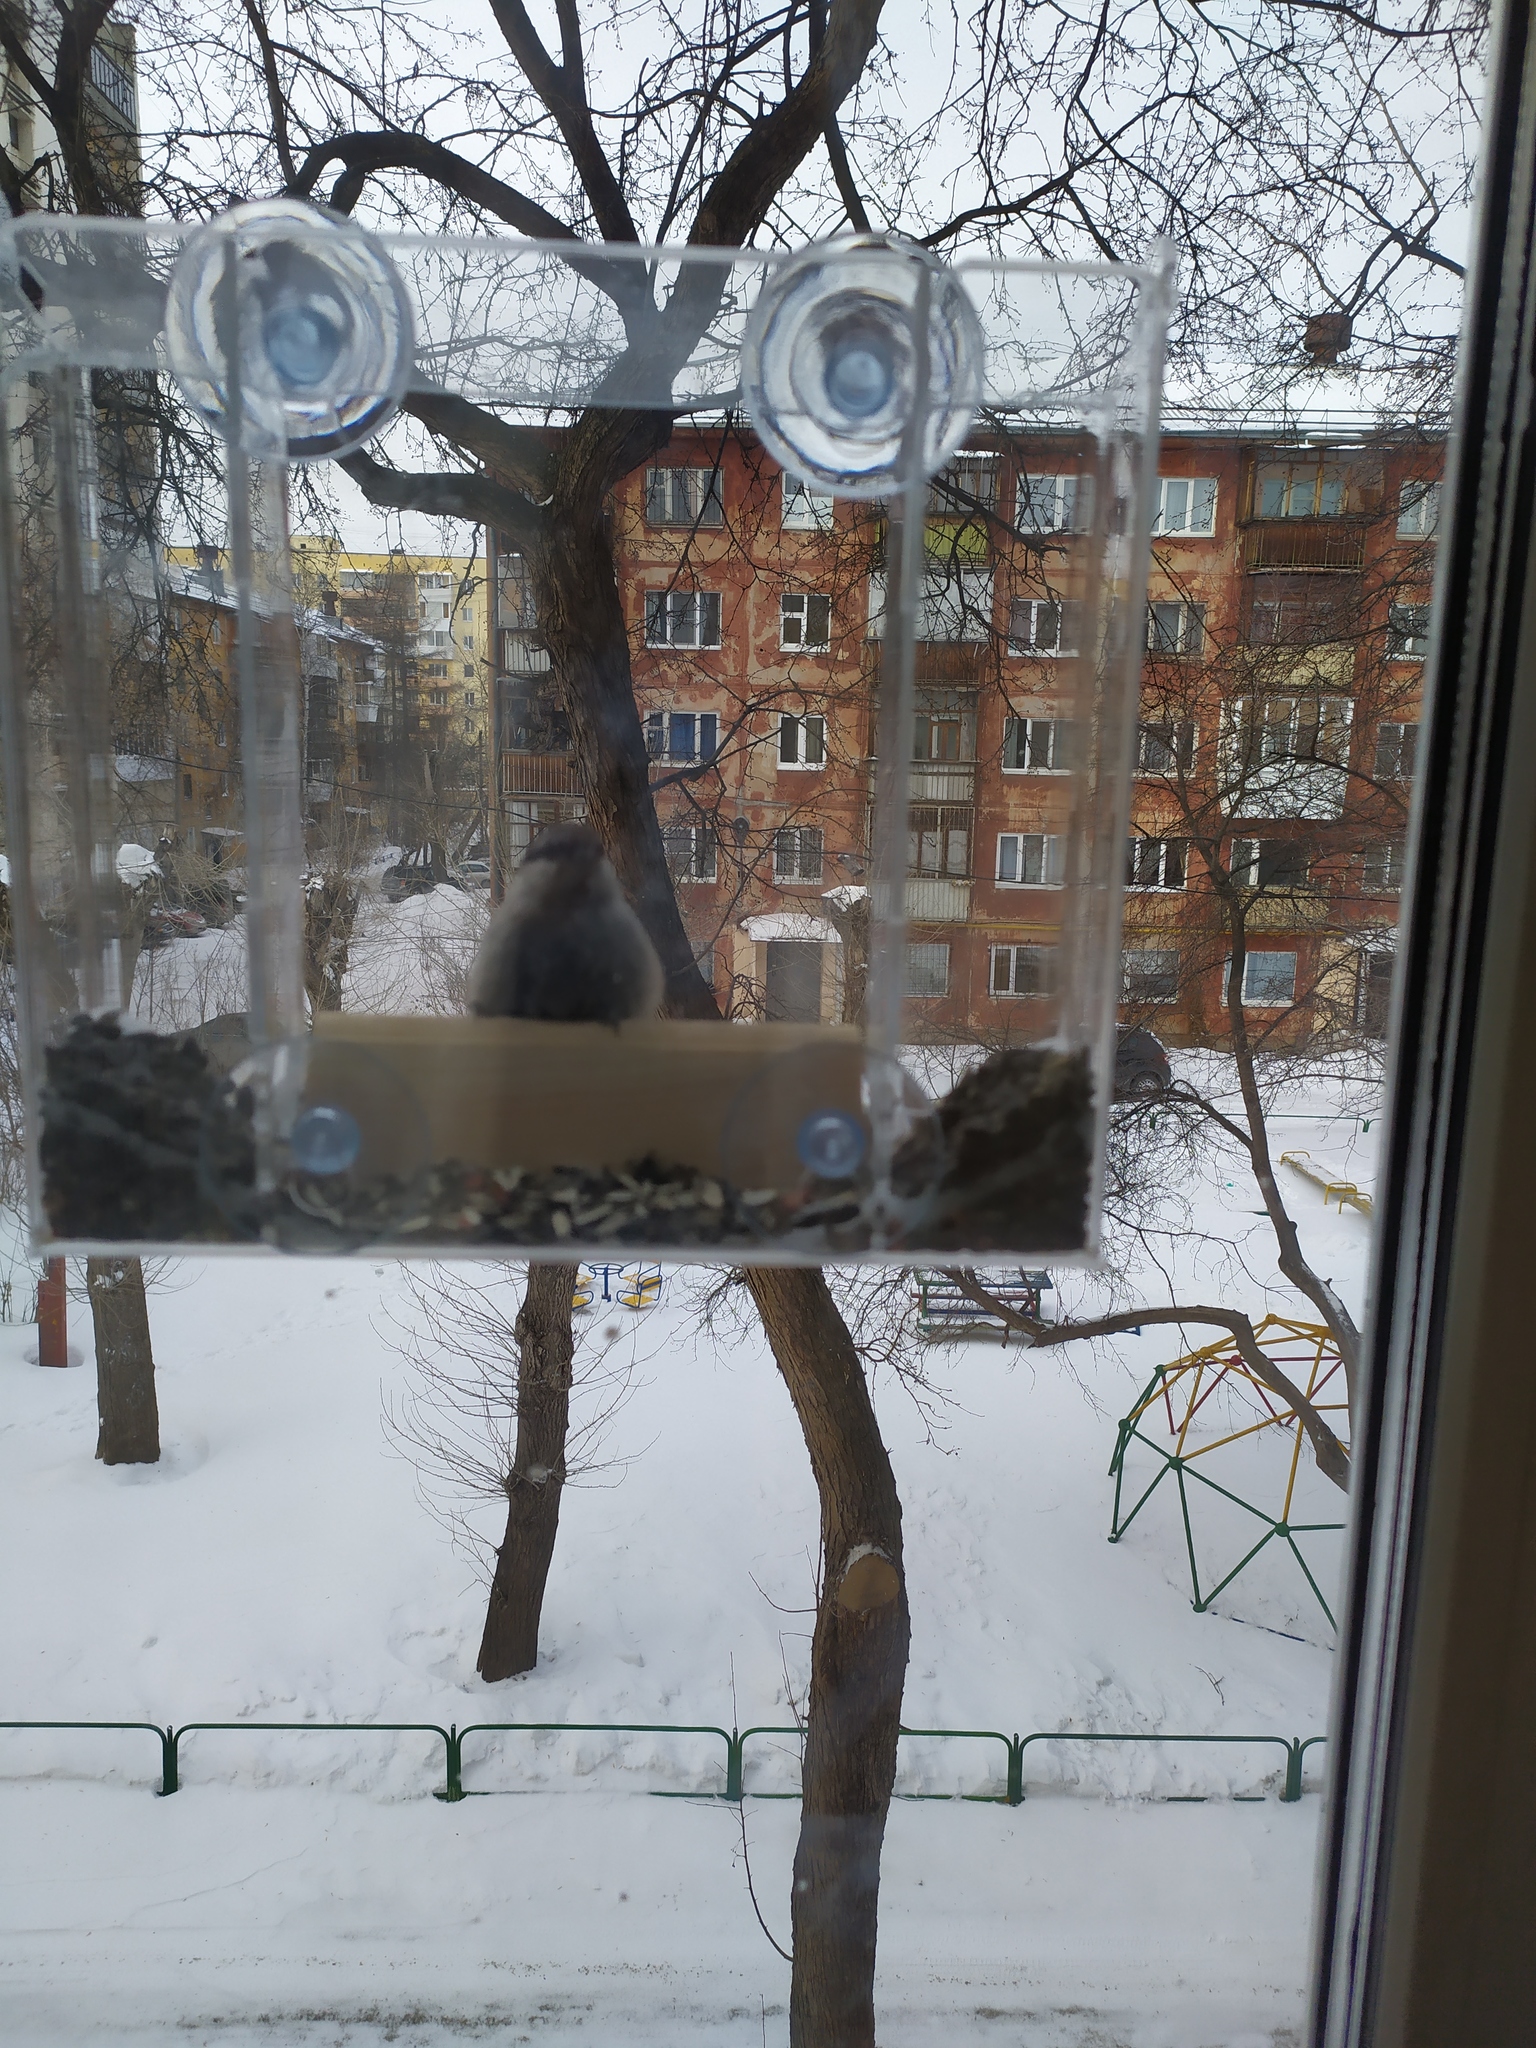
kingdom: Animalia
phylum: Chordata
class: Aves
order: Passeriformes
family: Sittidae
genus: Sitta
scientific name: Sitta europaea
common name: Eurasian nuthatch
